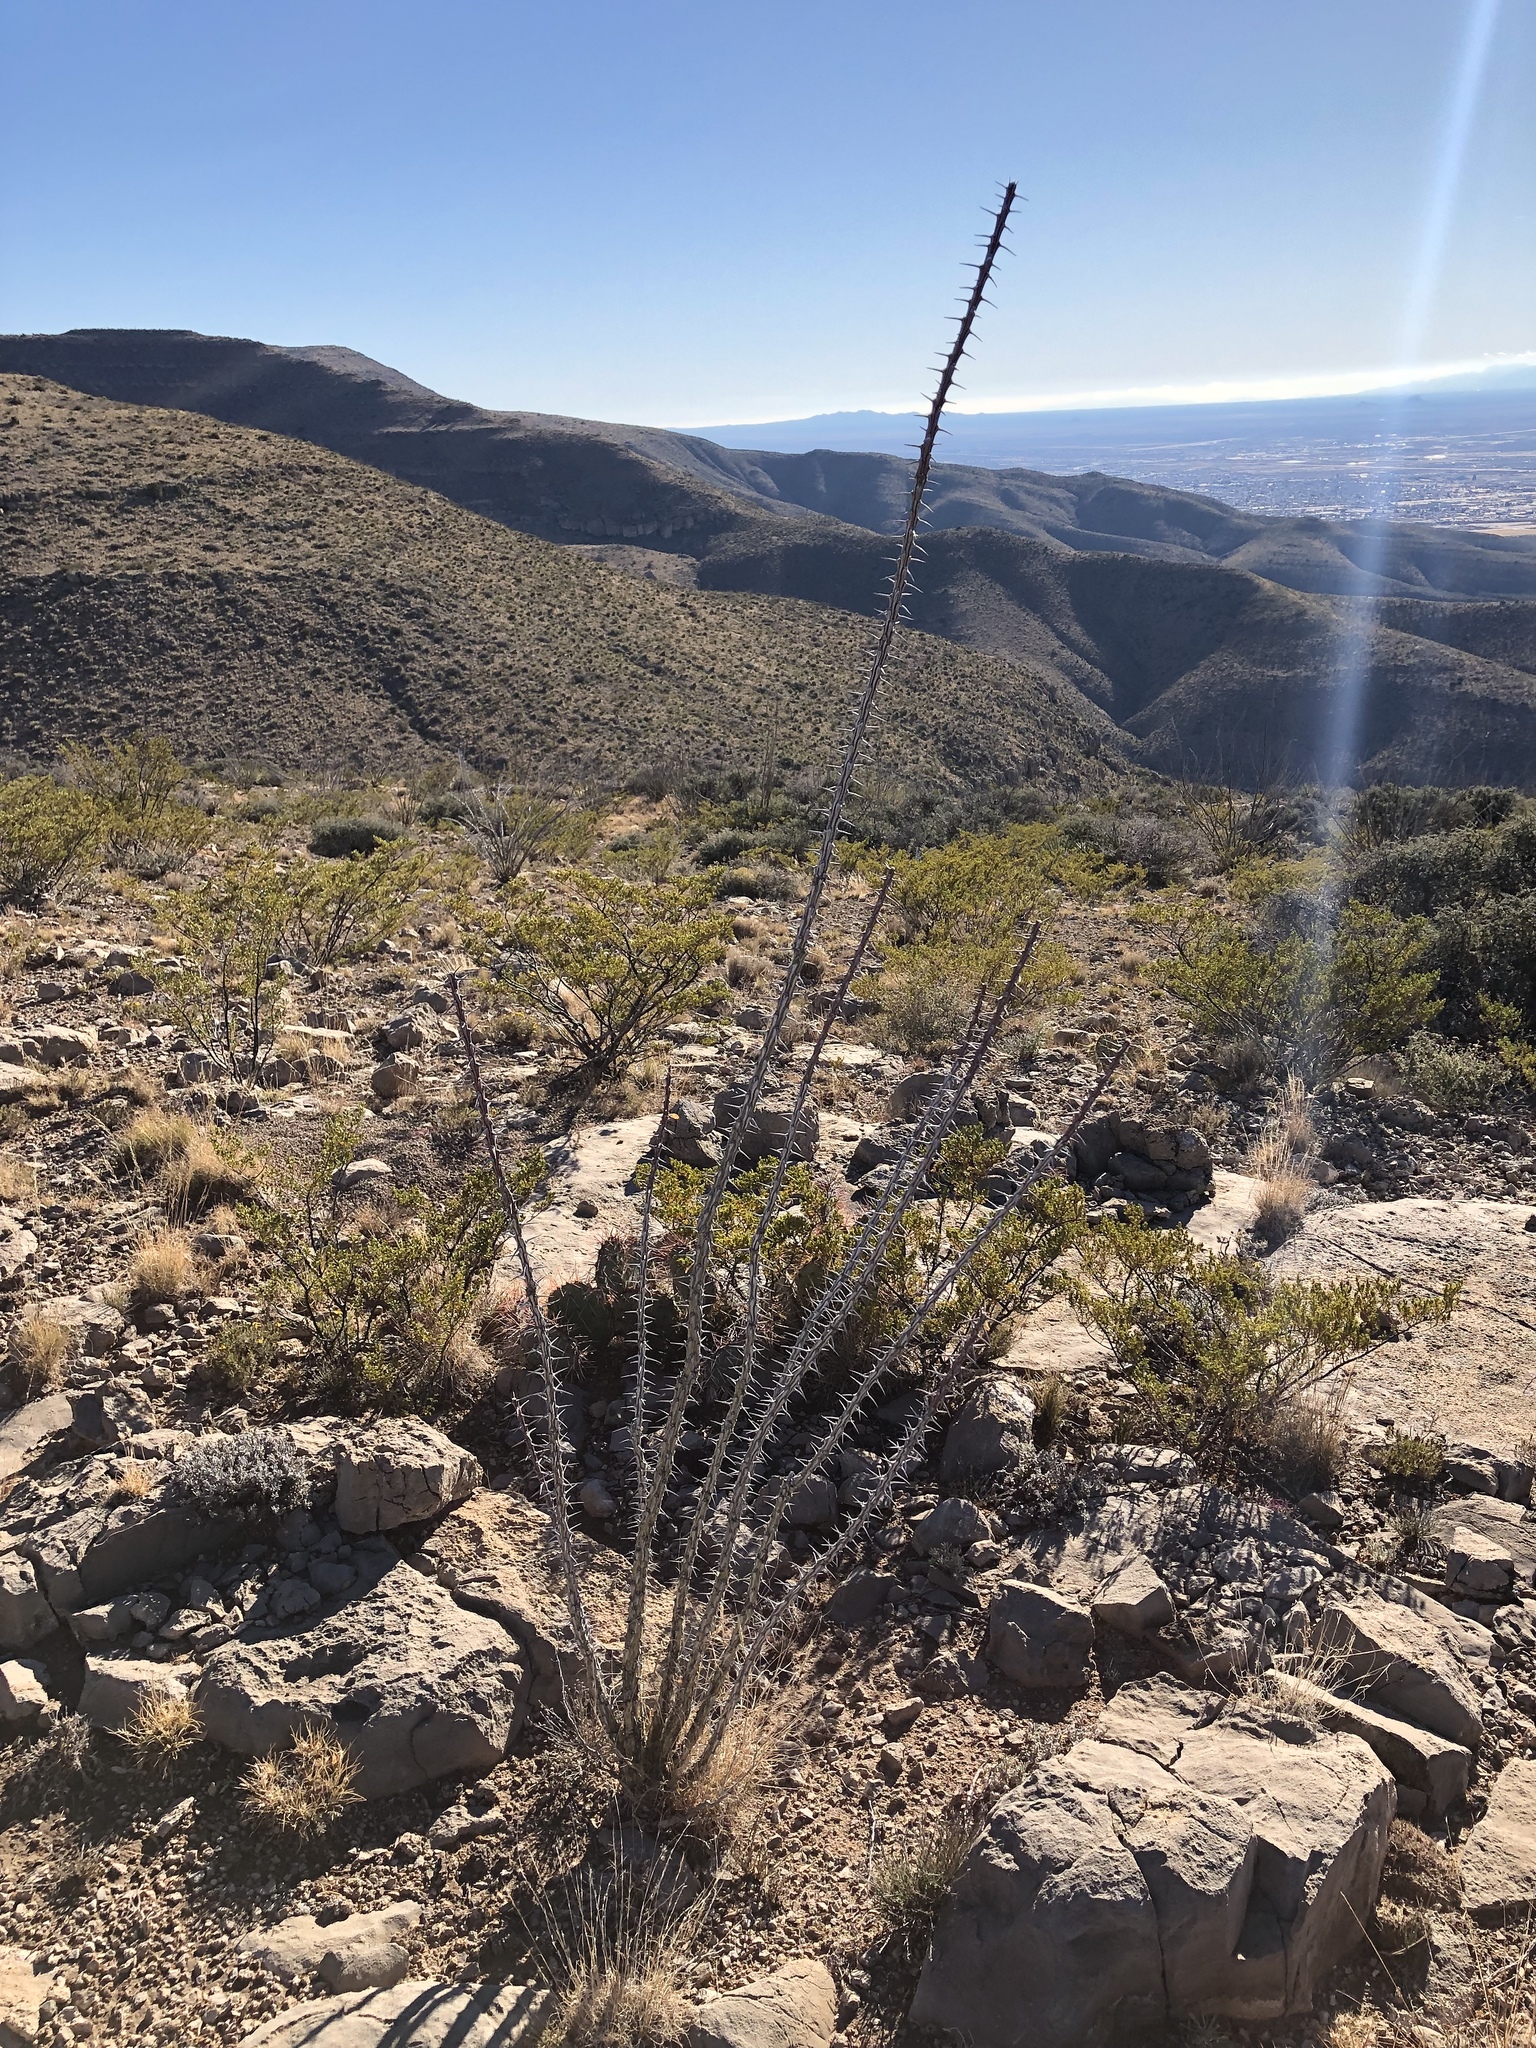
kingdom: Plantae
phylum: Tracheophyta
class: Magnoliopsida
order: Ericales
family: Fouquieriaceae
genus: Fouquieria
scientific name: Fouquieria splendens
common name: Vine-cactus
